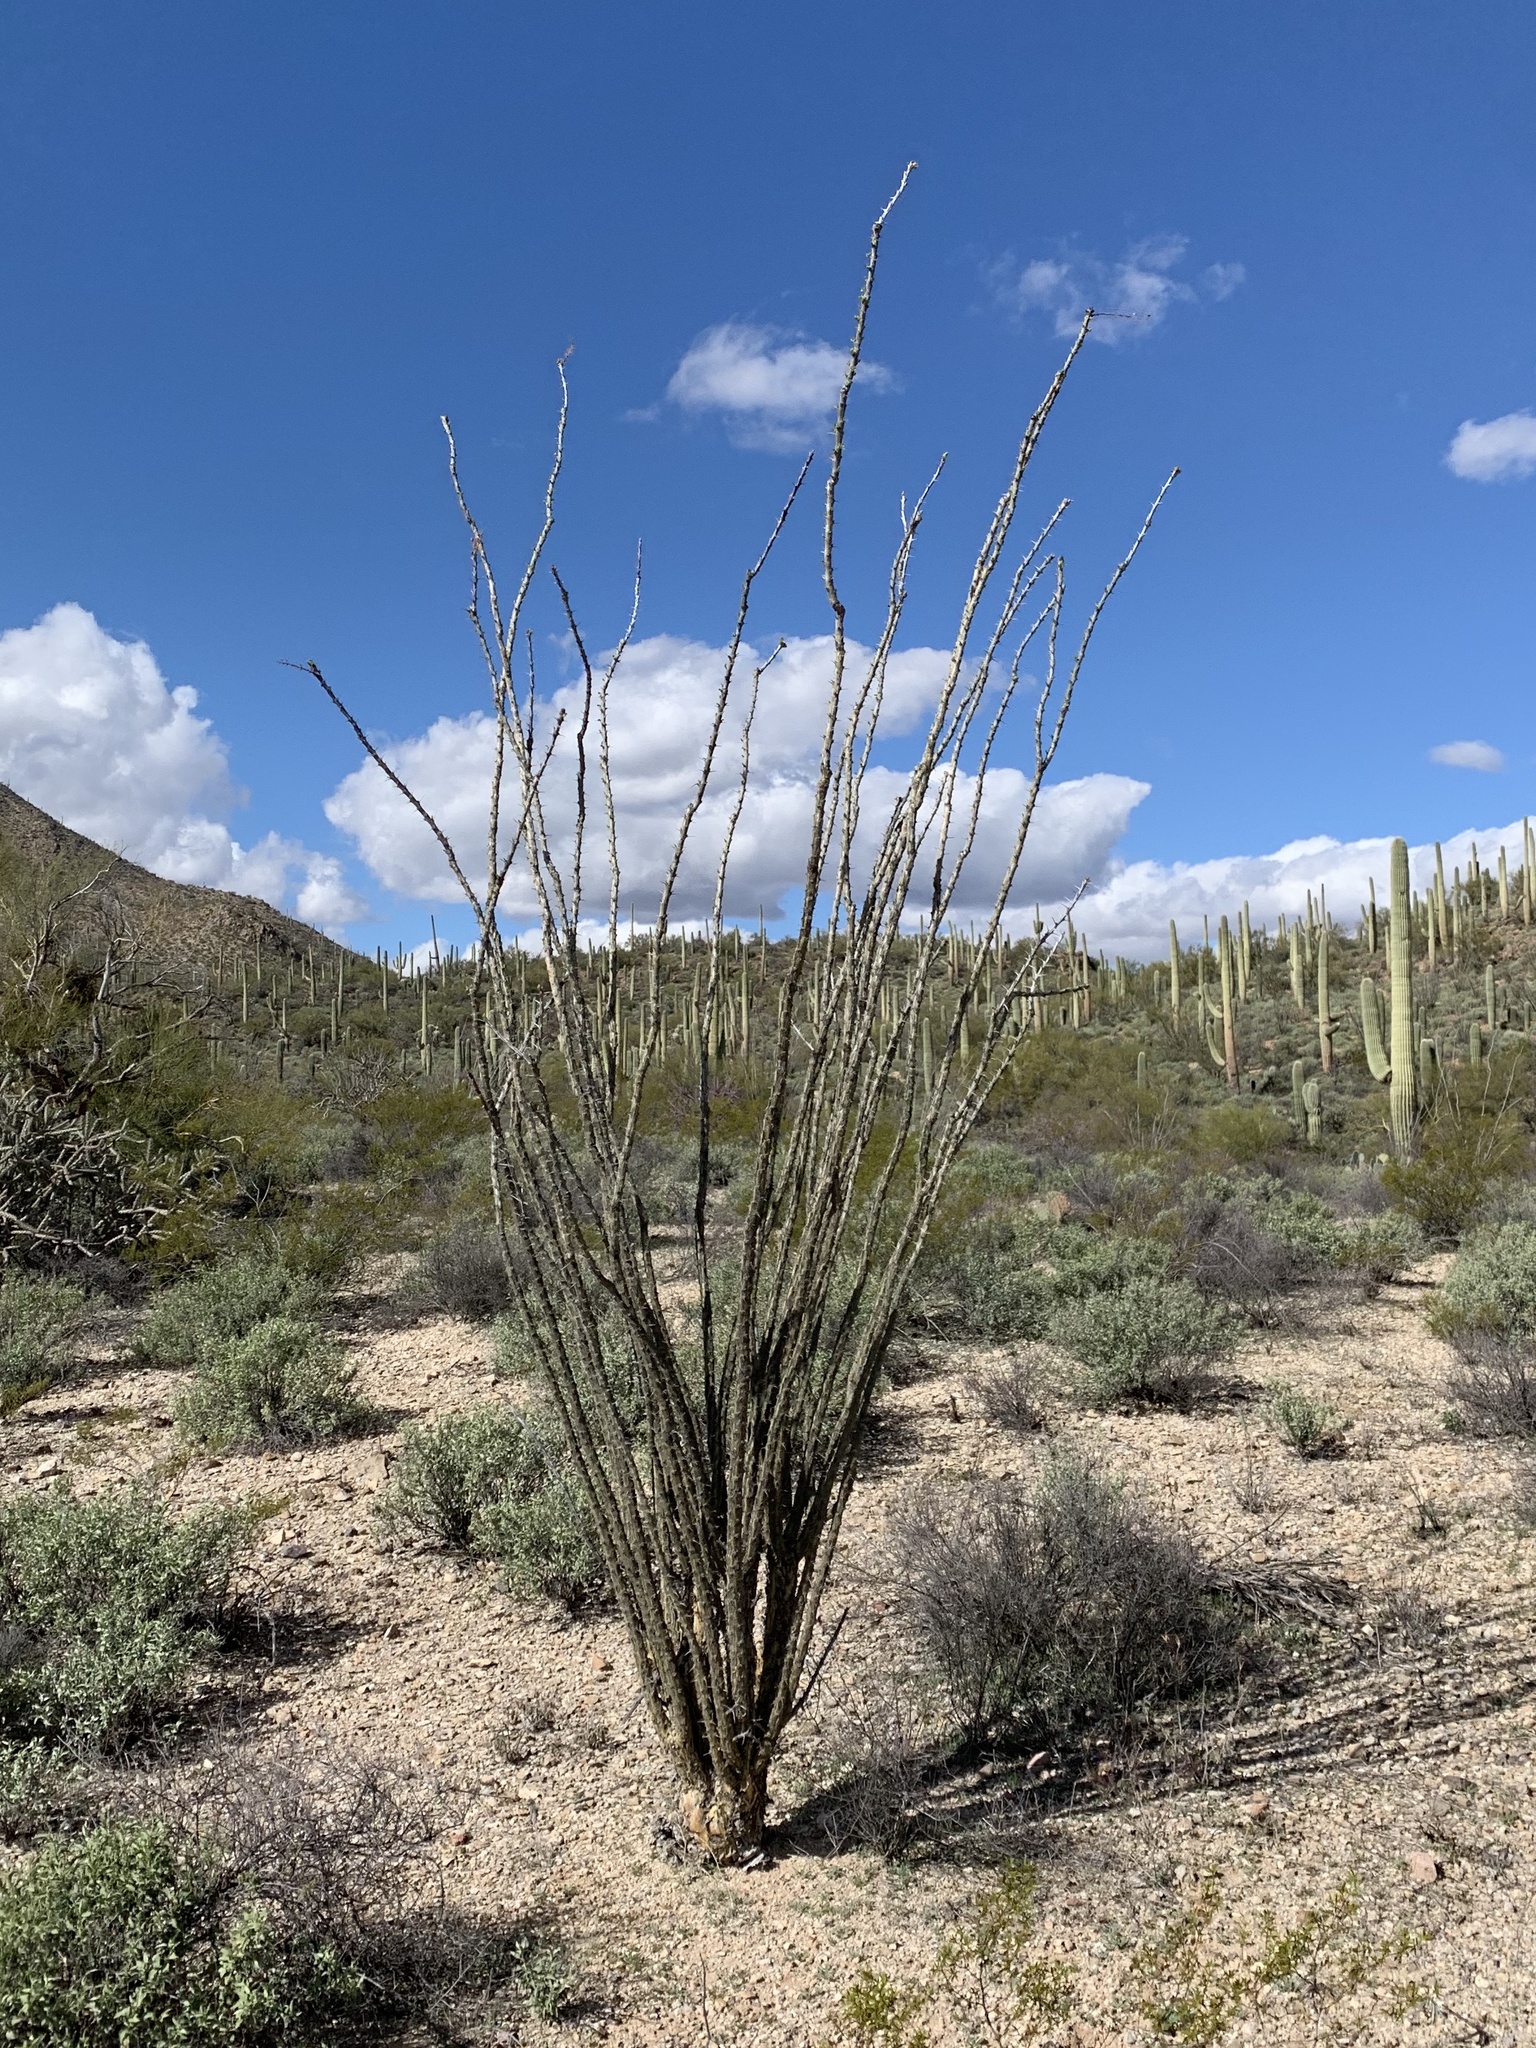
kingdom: Plantae
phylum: Tracheophyta
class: Magnoliopsida
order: Ericales
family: Fouquieriaceae
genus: Fouquieria
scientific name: Fouquieria splendens
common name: Vine-cactus
